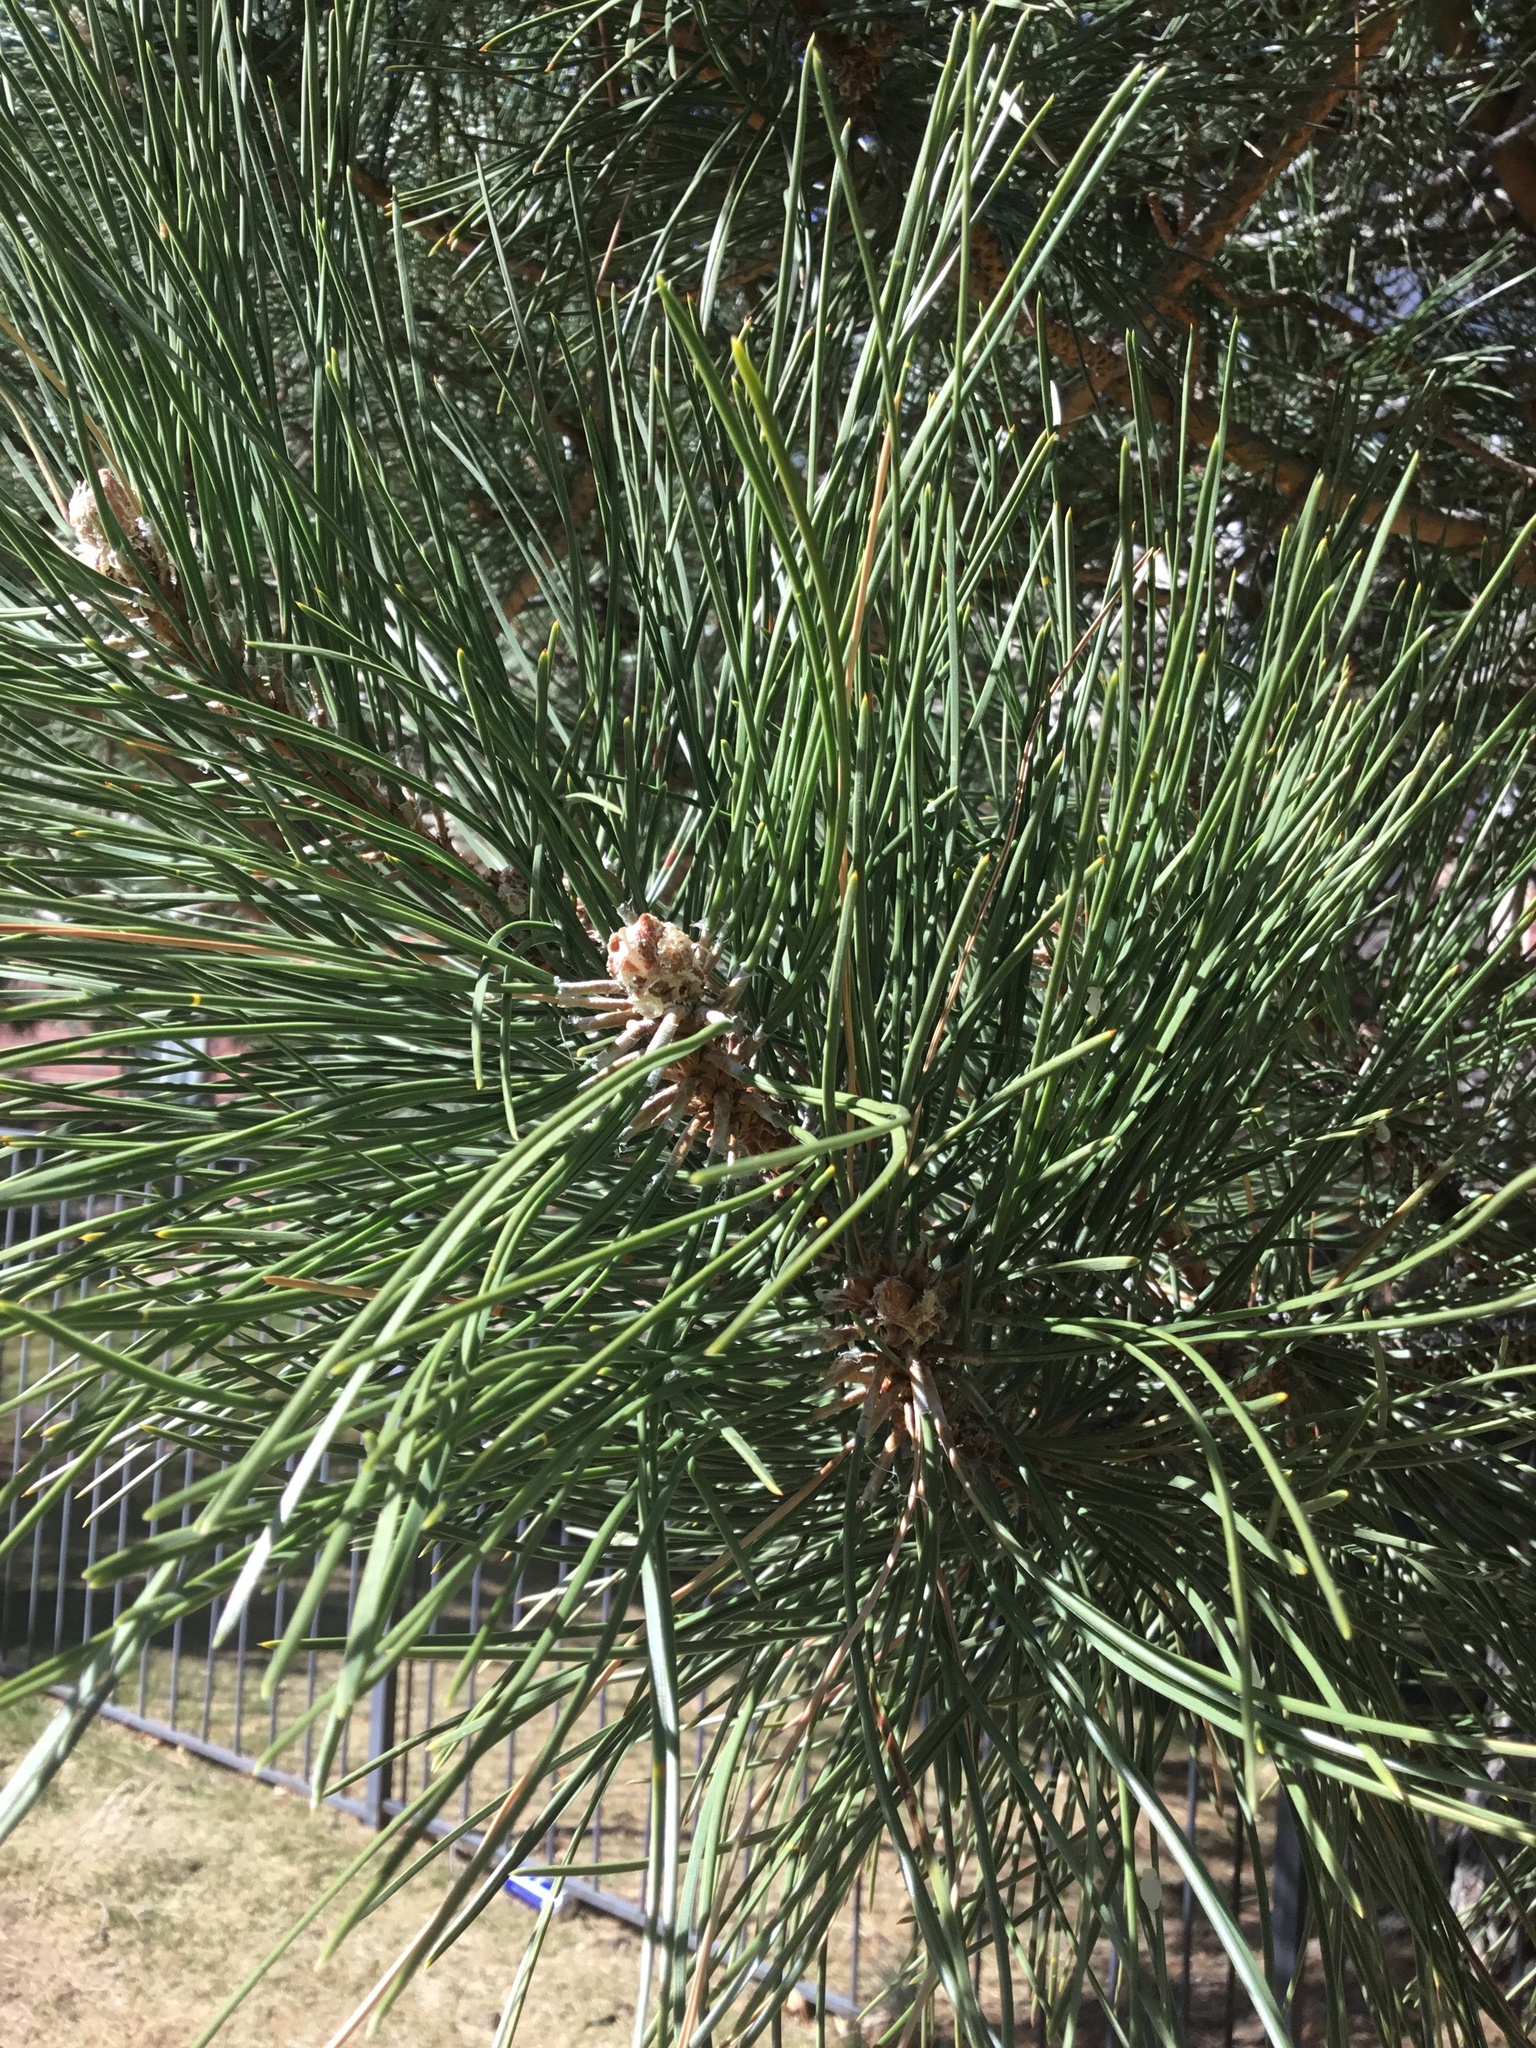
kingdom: Plantae
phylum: Tracheophyta
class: Pinopsida
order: Pinales
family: Pinaceae
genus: Pinus
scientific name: Pinus ponderosa
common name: Western yellow-pine
